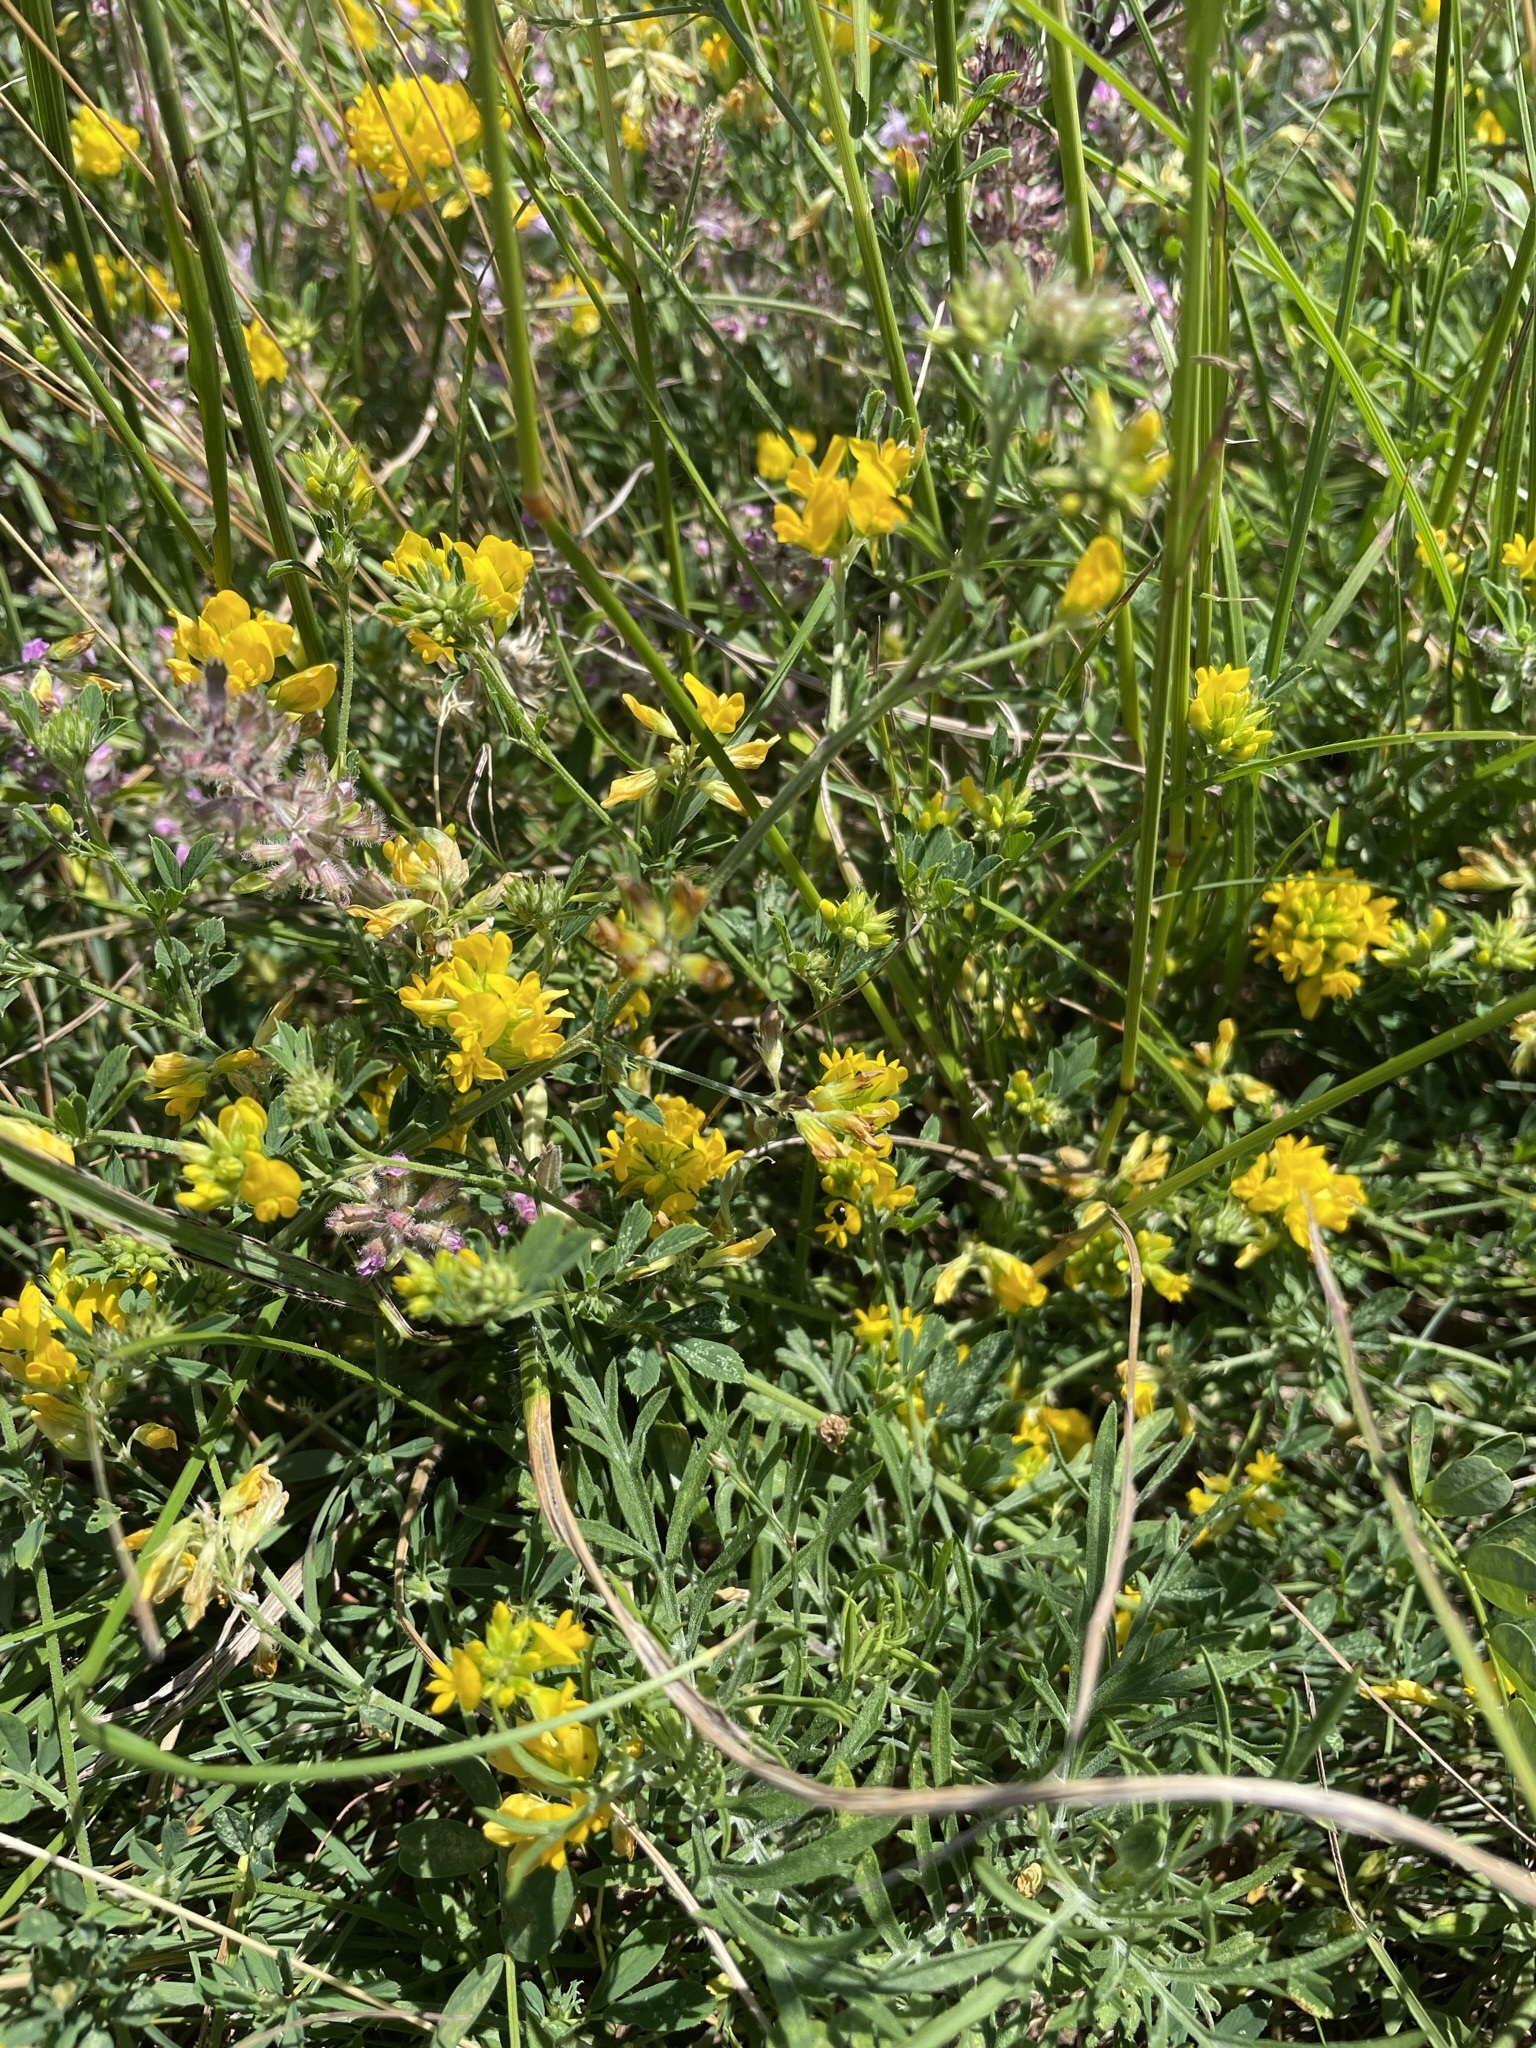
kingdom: Plantae
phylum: Tracheophyta
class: Magnoliopsida
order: Fabales
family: Fabaceae
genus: Medicago
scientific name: Medicago falcata
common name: Sickle medick
